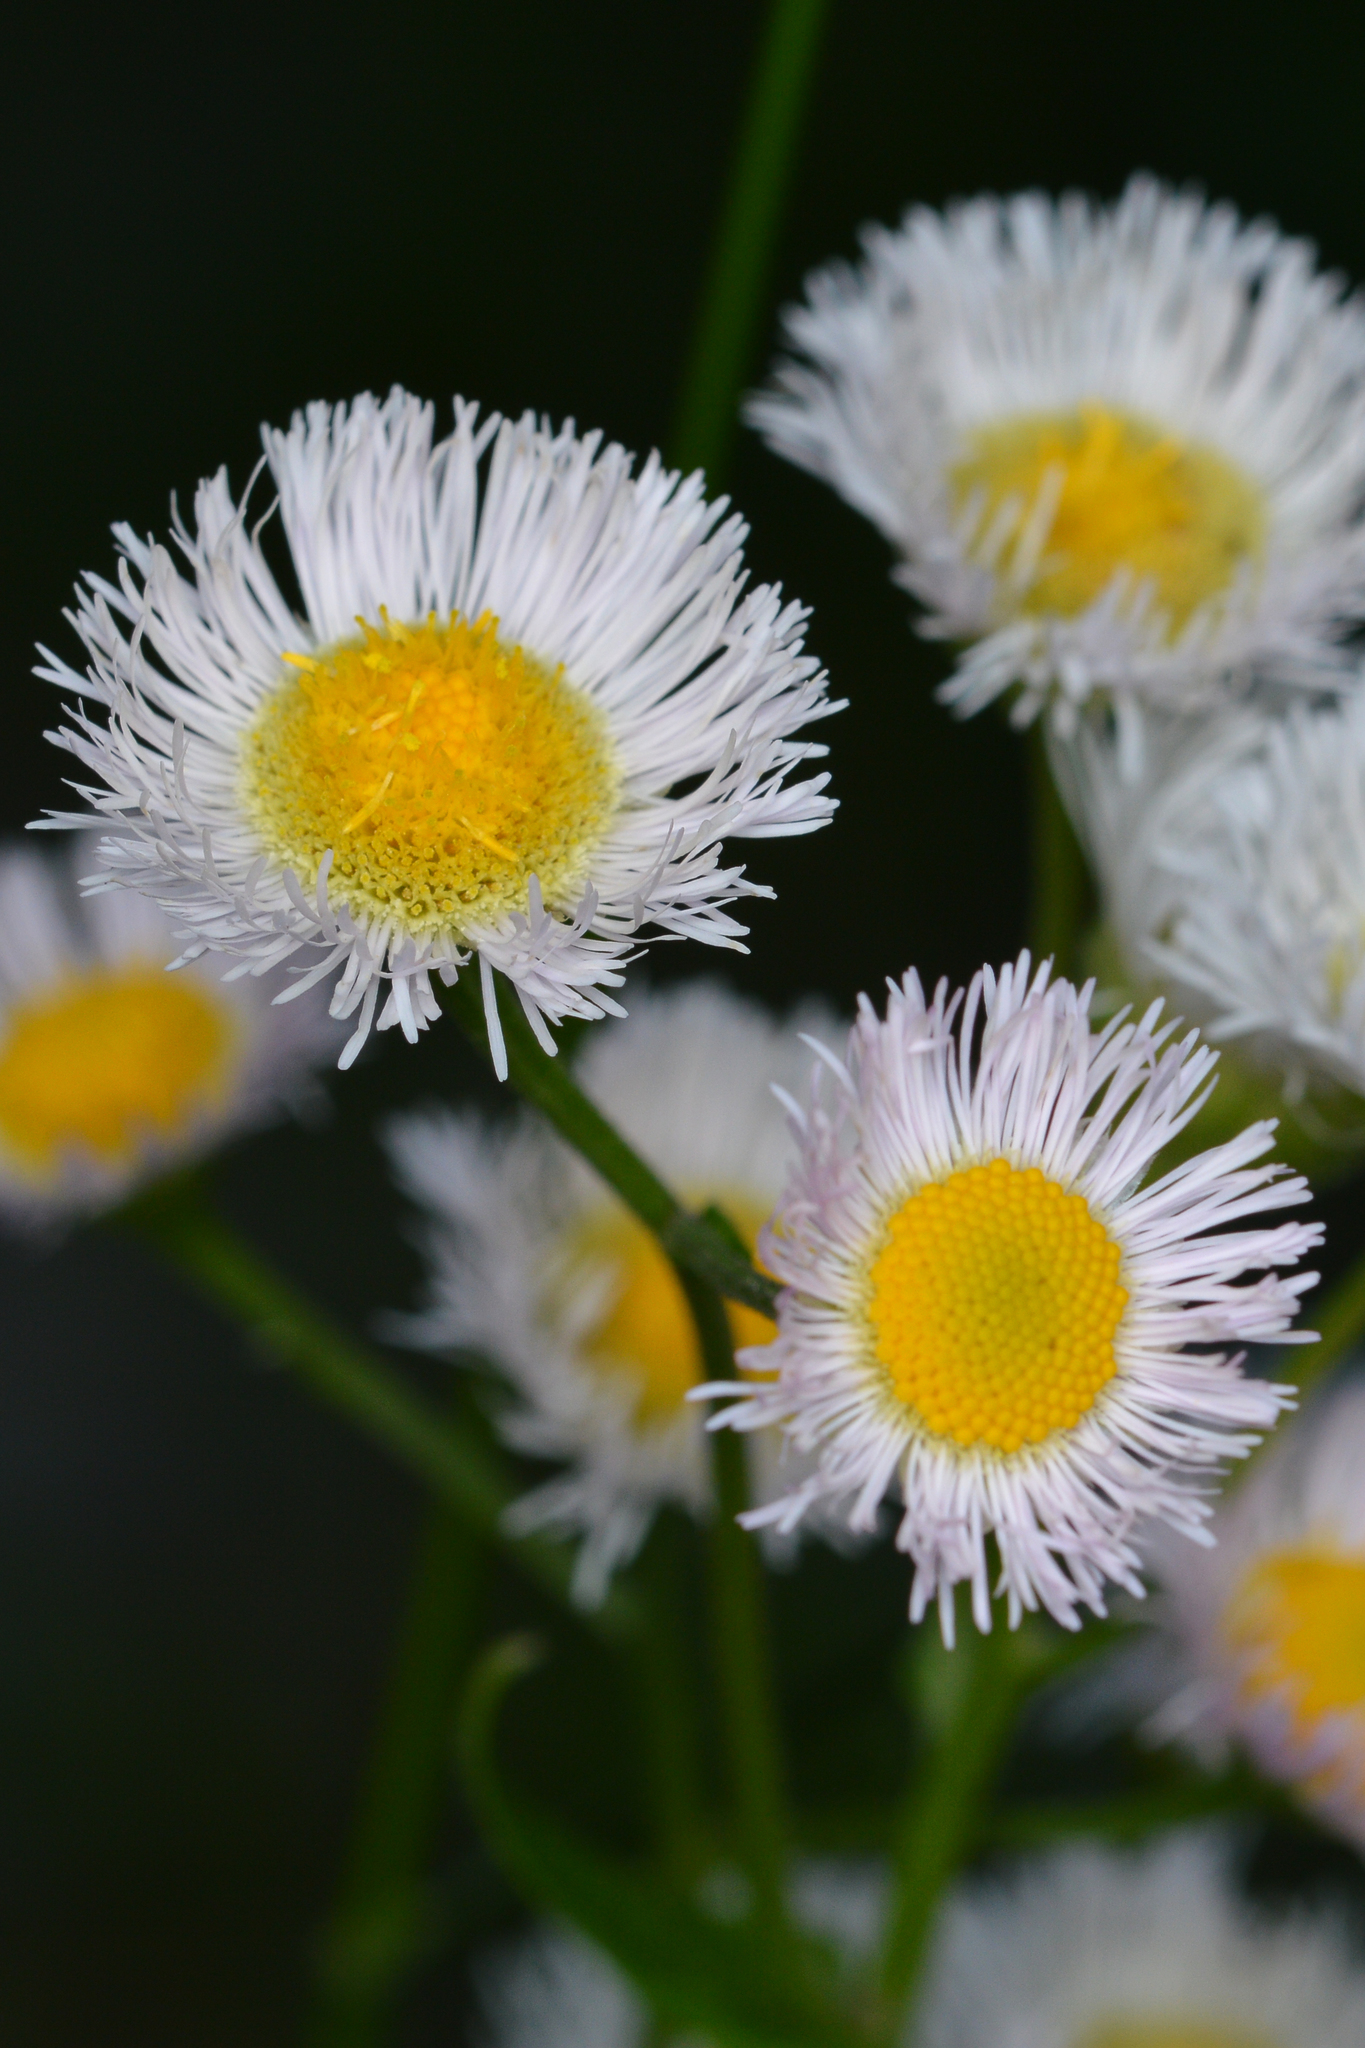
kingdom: Plantae
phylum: Tracheophyta
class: Magnoliopsida
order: Asterales
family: Asteraceae
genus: Erigeron
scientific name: Erigeron philadelphicus
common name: Robin's-plantain
